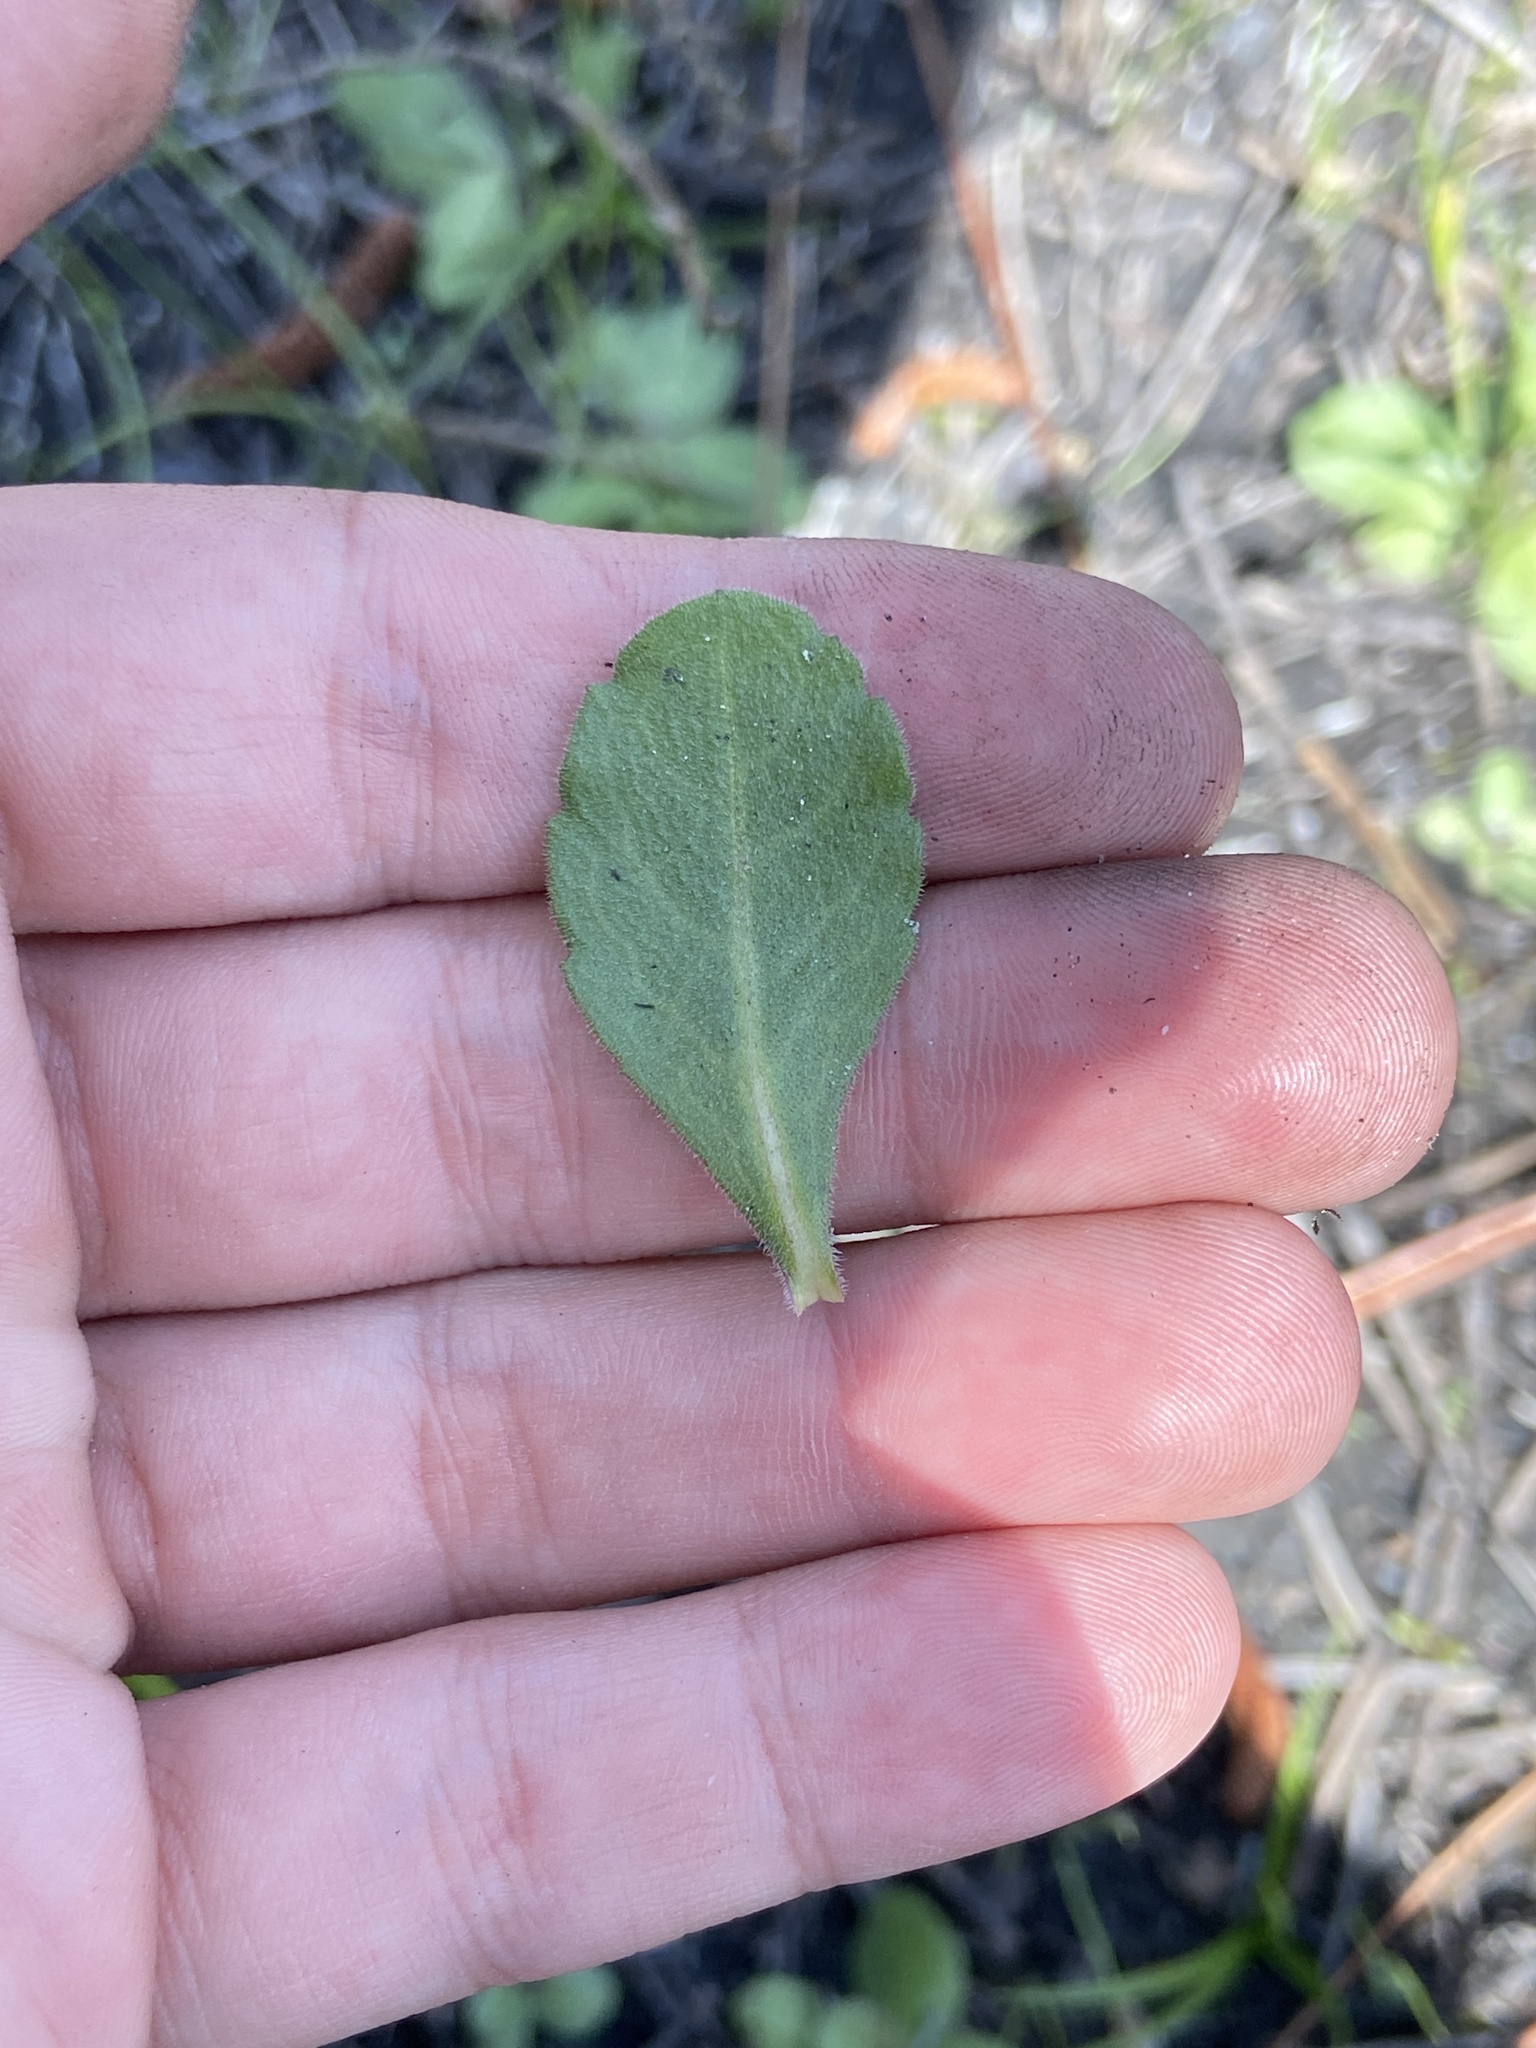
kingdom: Plantae
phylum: Tracheophyta
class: Magnoliopsida
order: Asterales
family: Asteraceae
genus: Erigeron
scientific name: Erigeron quercifolius
